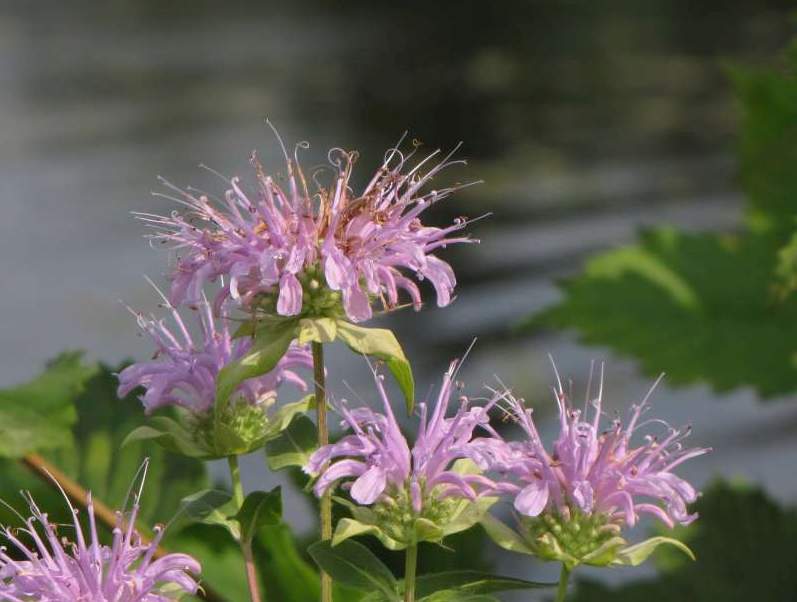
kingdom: Plantae
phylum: Tracheophyta
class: Magnoliopsida
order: Lamiales
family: Lamiaceae
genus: Monarda
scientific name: Monarda fistulosa
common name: Purple beebalm
